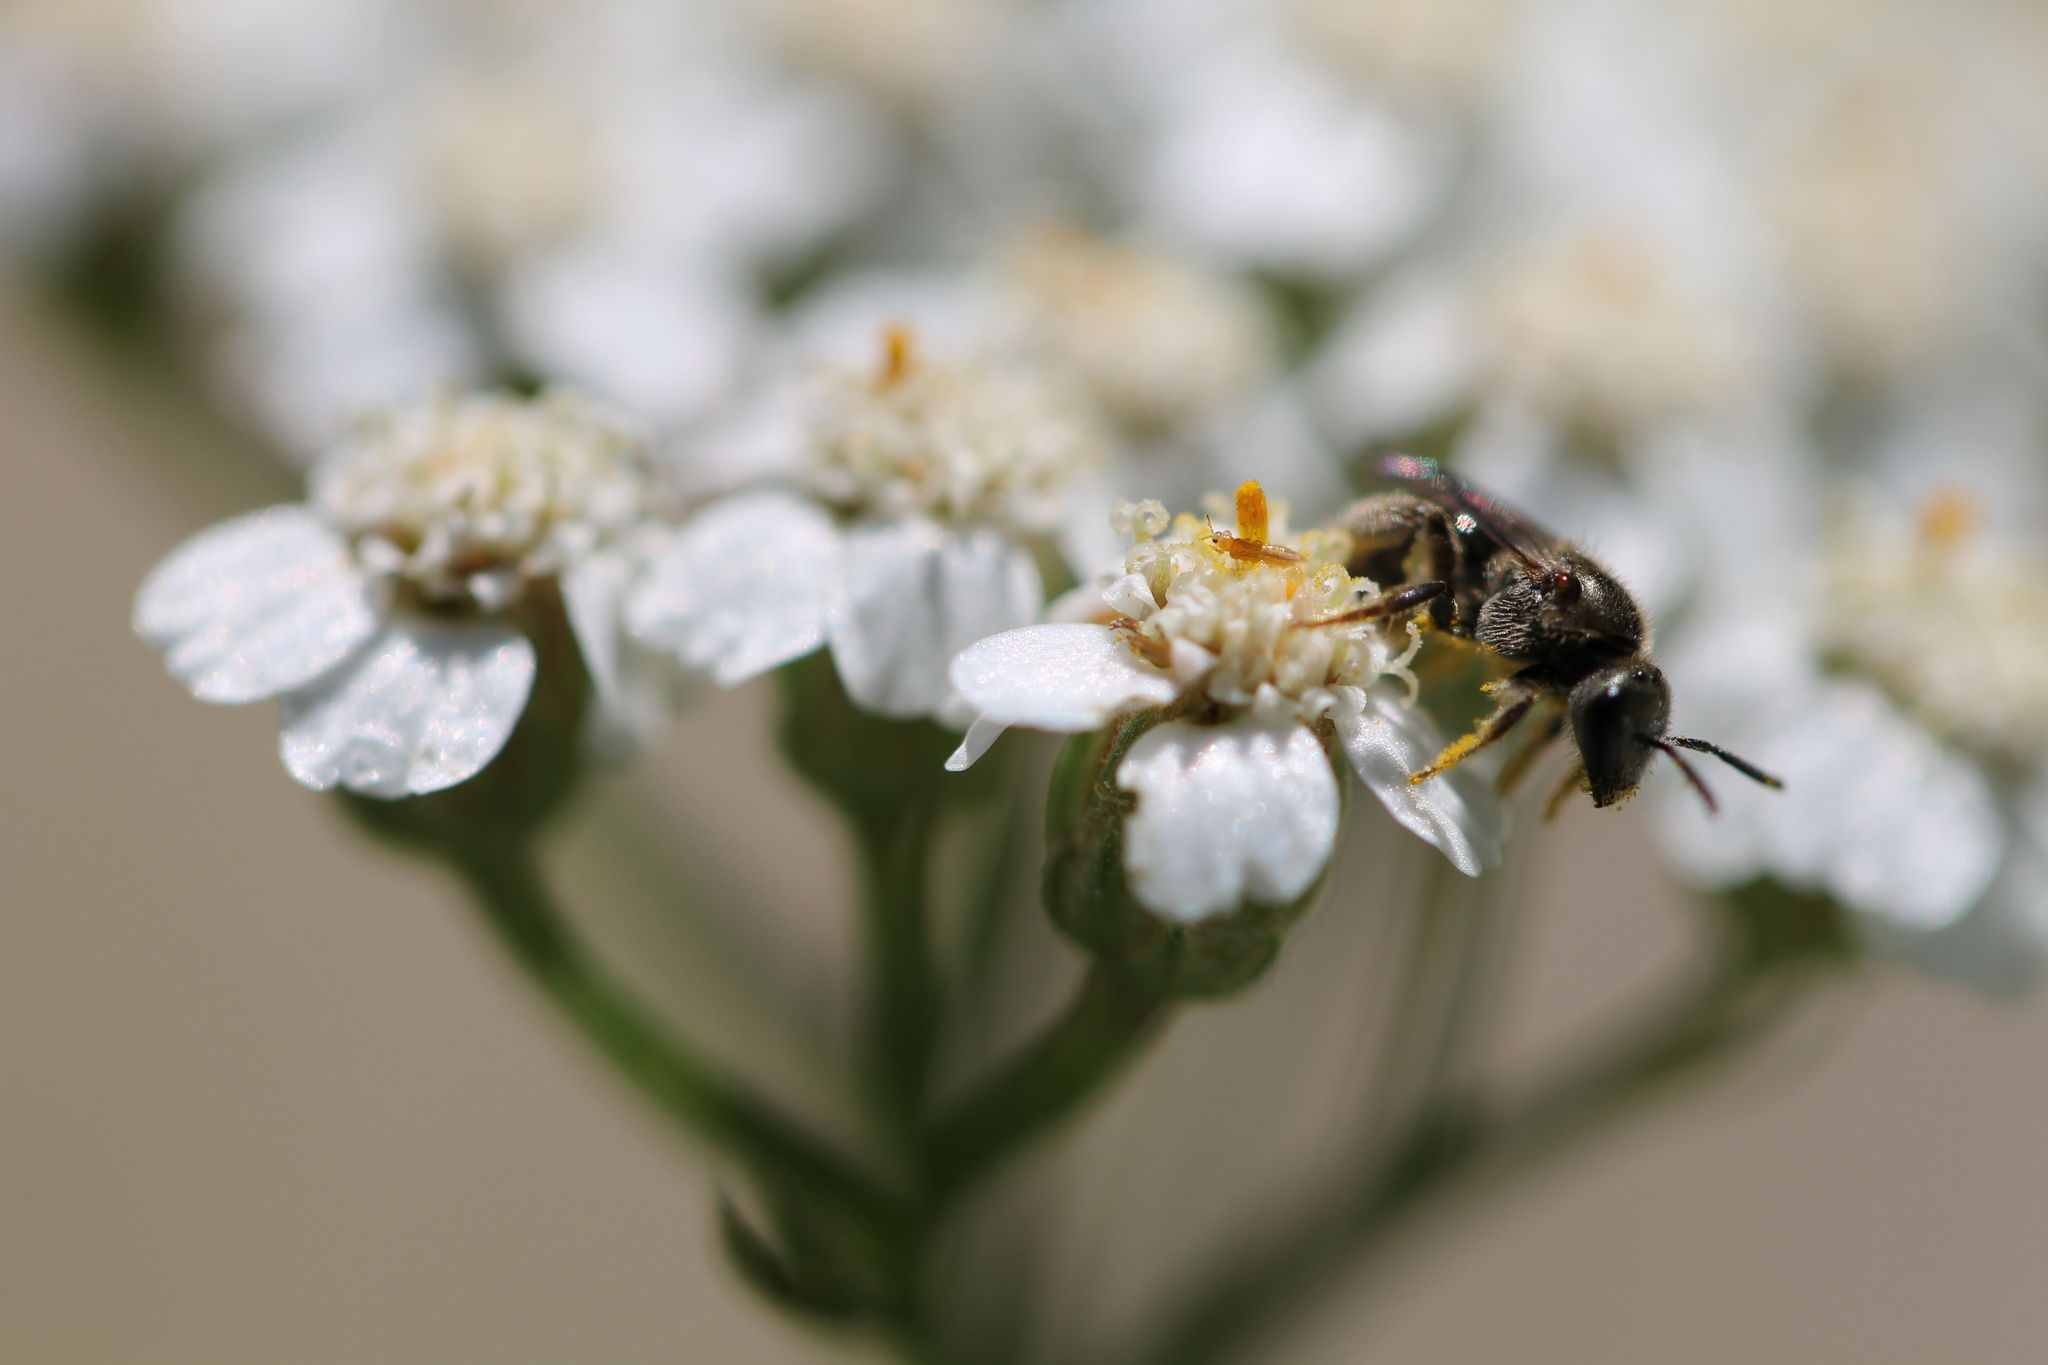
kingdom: Animalia
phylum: Arthropoda
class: Insecta
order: Hymenoptera
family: Halictidae
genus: Dialictus
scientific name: Dialictus
